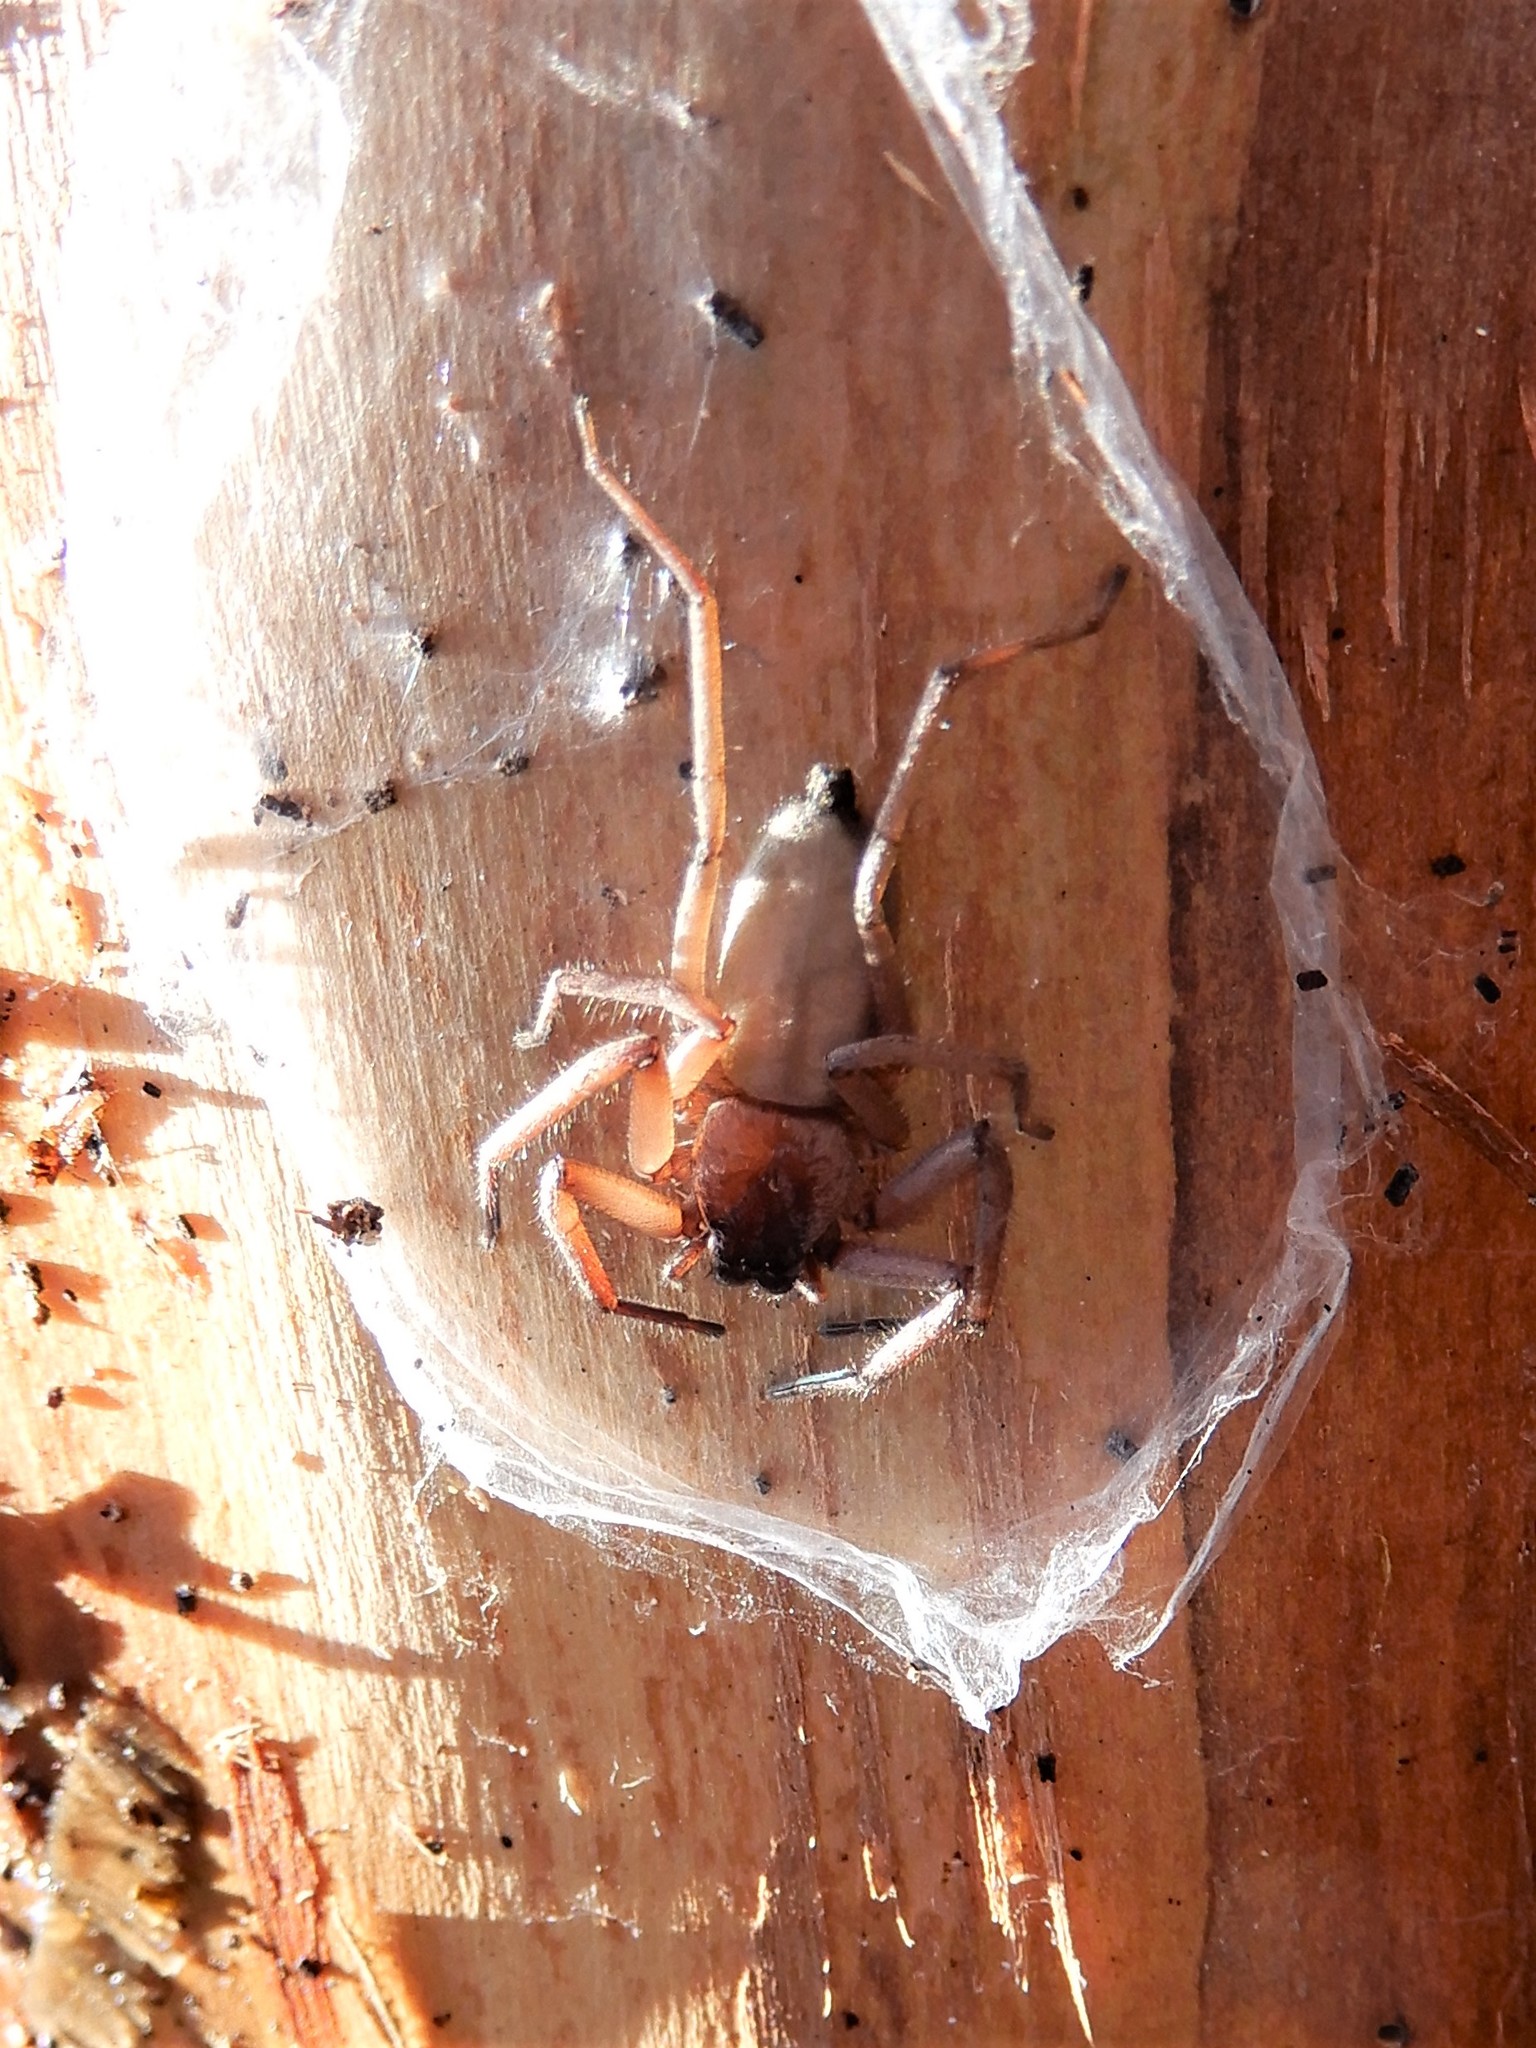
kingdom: Animalia
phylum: Arthropoda
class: Arachnida
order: Araneae
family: Trochanteriidae
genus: Hemicloea
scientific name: Hemicloea rogenhoferi
